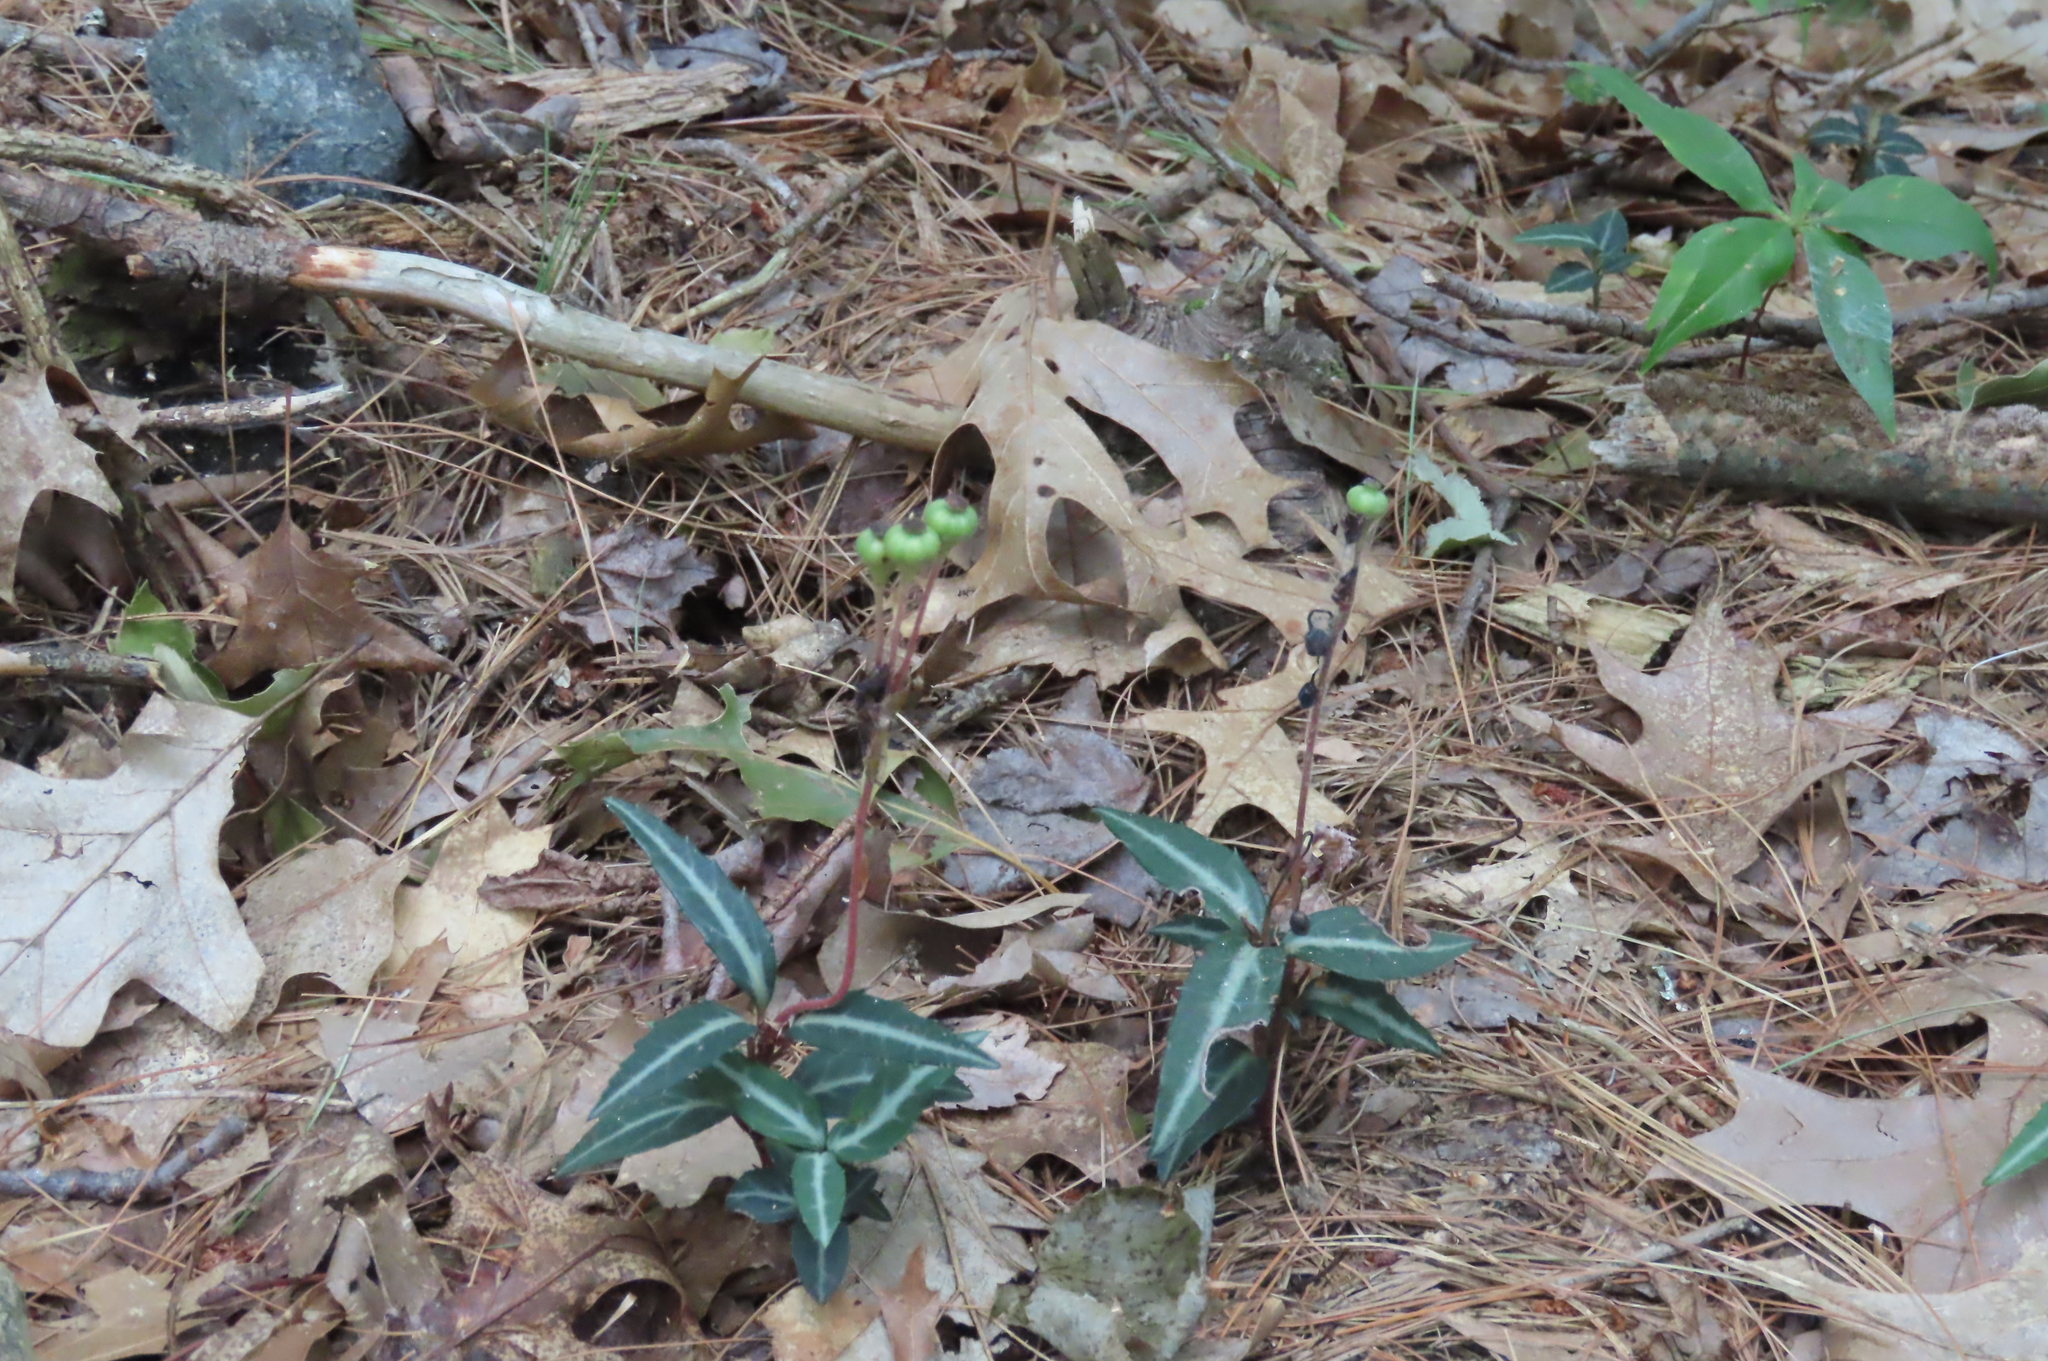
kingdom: Plantae
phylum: Tracheophyta
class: Magnoliopsida
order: Ericales
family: Ericaceae
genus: Chimaphila
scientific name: Chimaphila maculata
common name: Spotted pipsissewa
